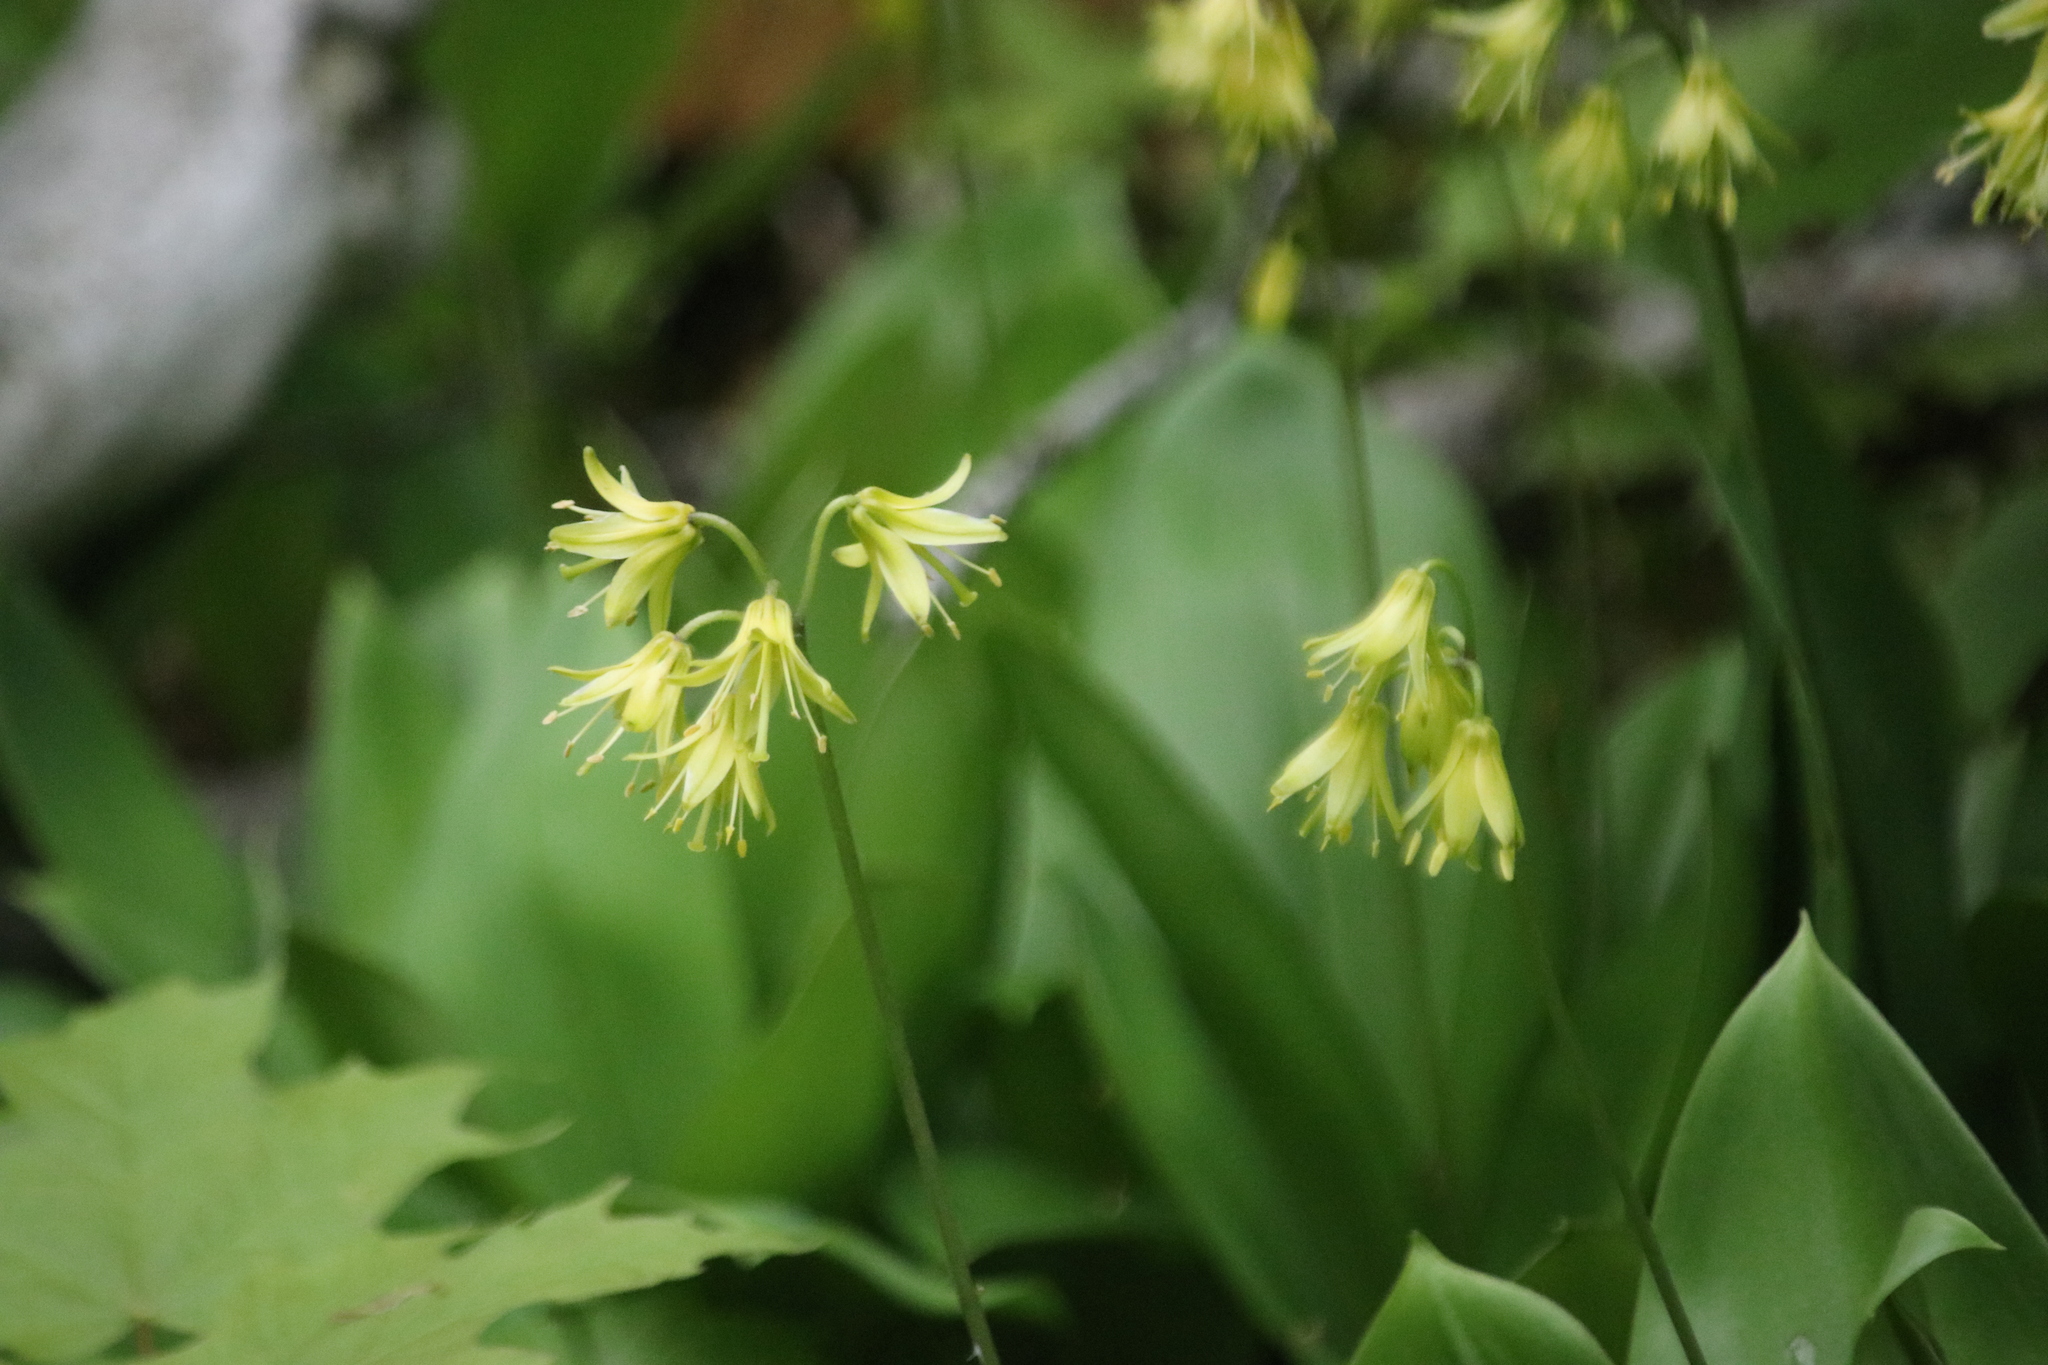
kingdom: Plantae
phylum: Tracheophyta
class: Liliopsida
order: Liliales
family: Liliaceae
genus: Clintonia
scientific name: Clintonia borealis
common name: Yellow clintonia
